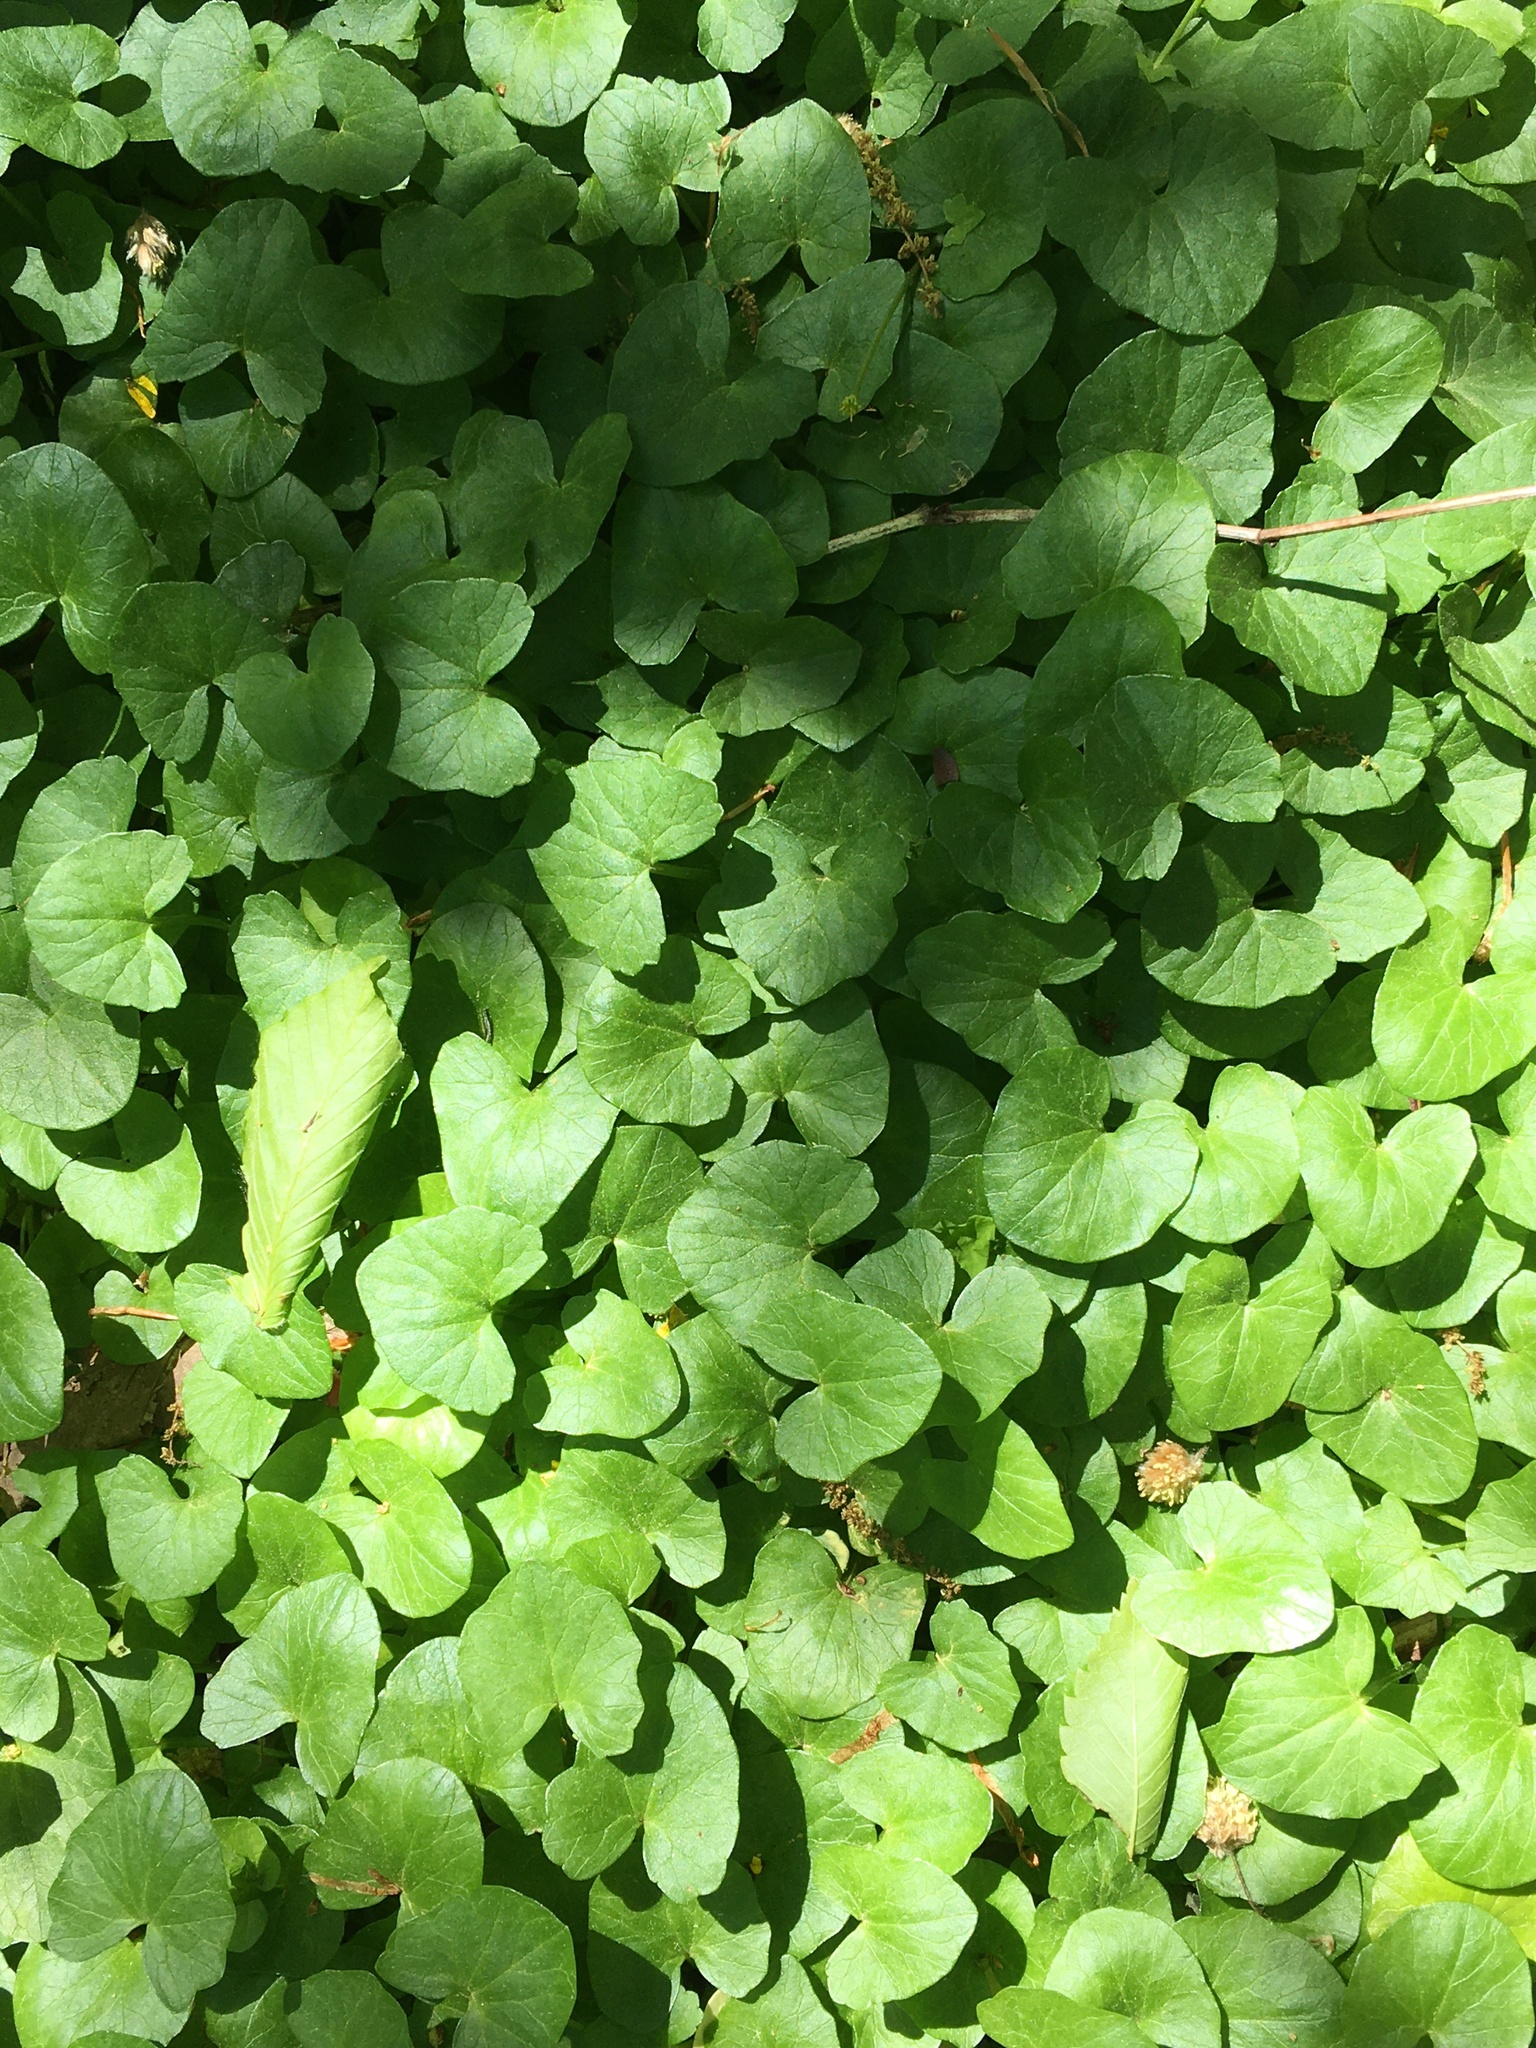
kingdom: Plantae
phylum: Tracheophyta
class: Magnoliopsida
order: Ranunculales
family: Ranunculaceae
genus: Ficaria
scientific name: Ficaria verna
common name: Lesser celandine
